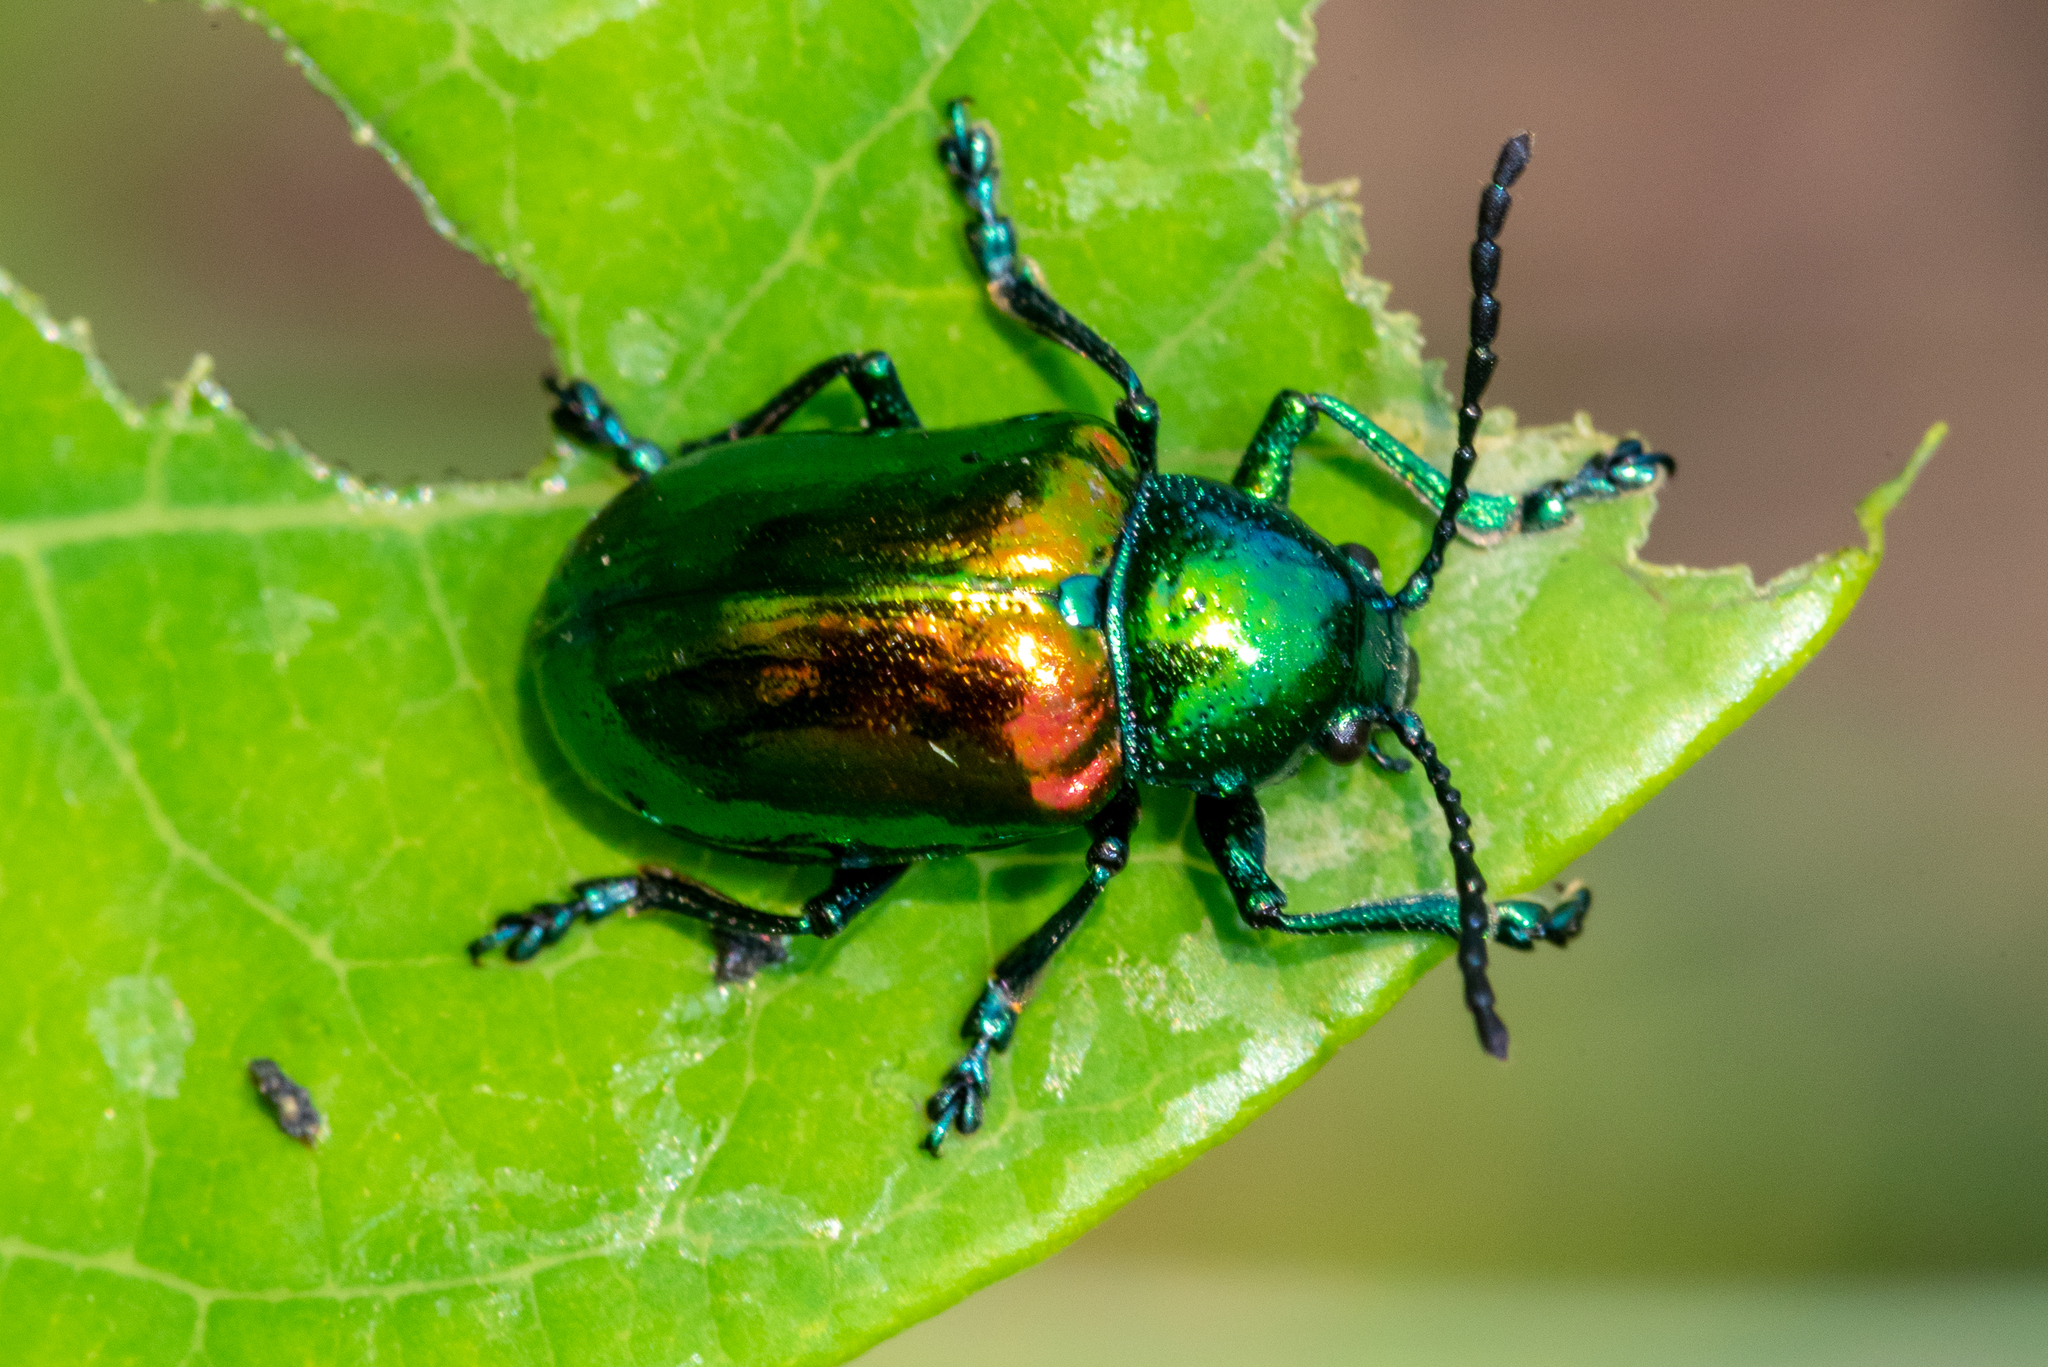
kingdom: Animalia
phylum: Arthropoda
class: Insecta
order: Coleoptera
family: Chrysomelidae
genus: Chrysochus
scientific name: Chrysochus auratus
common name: Dogbane leaf beetle
